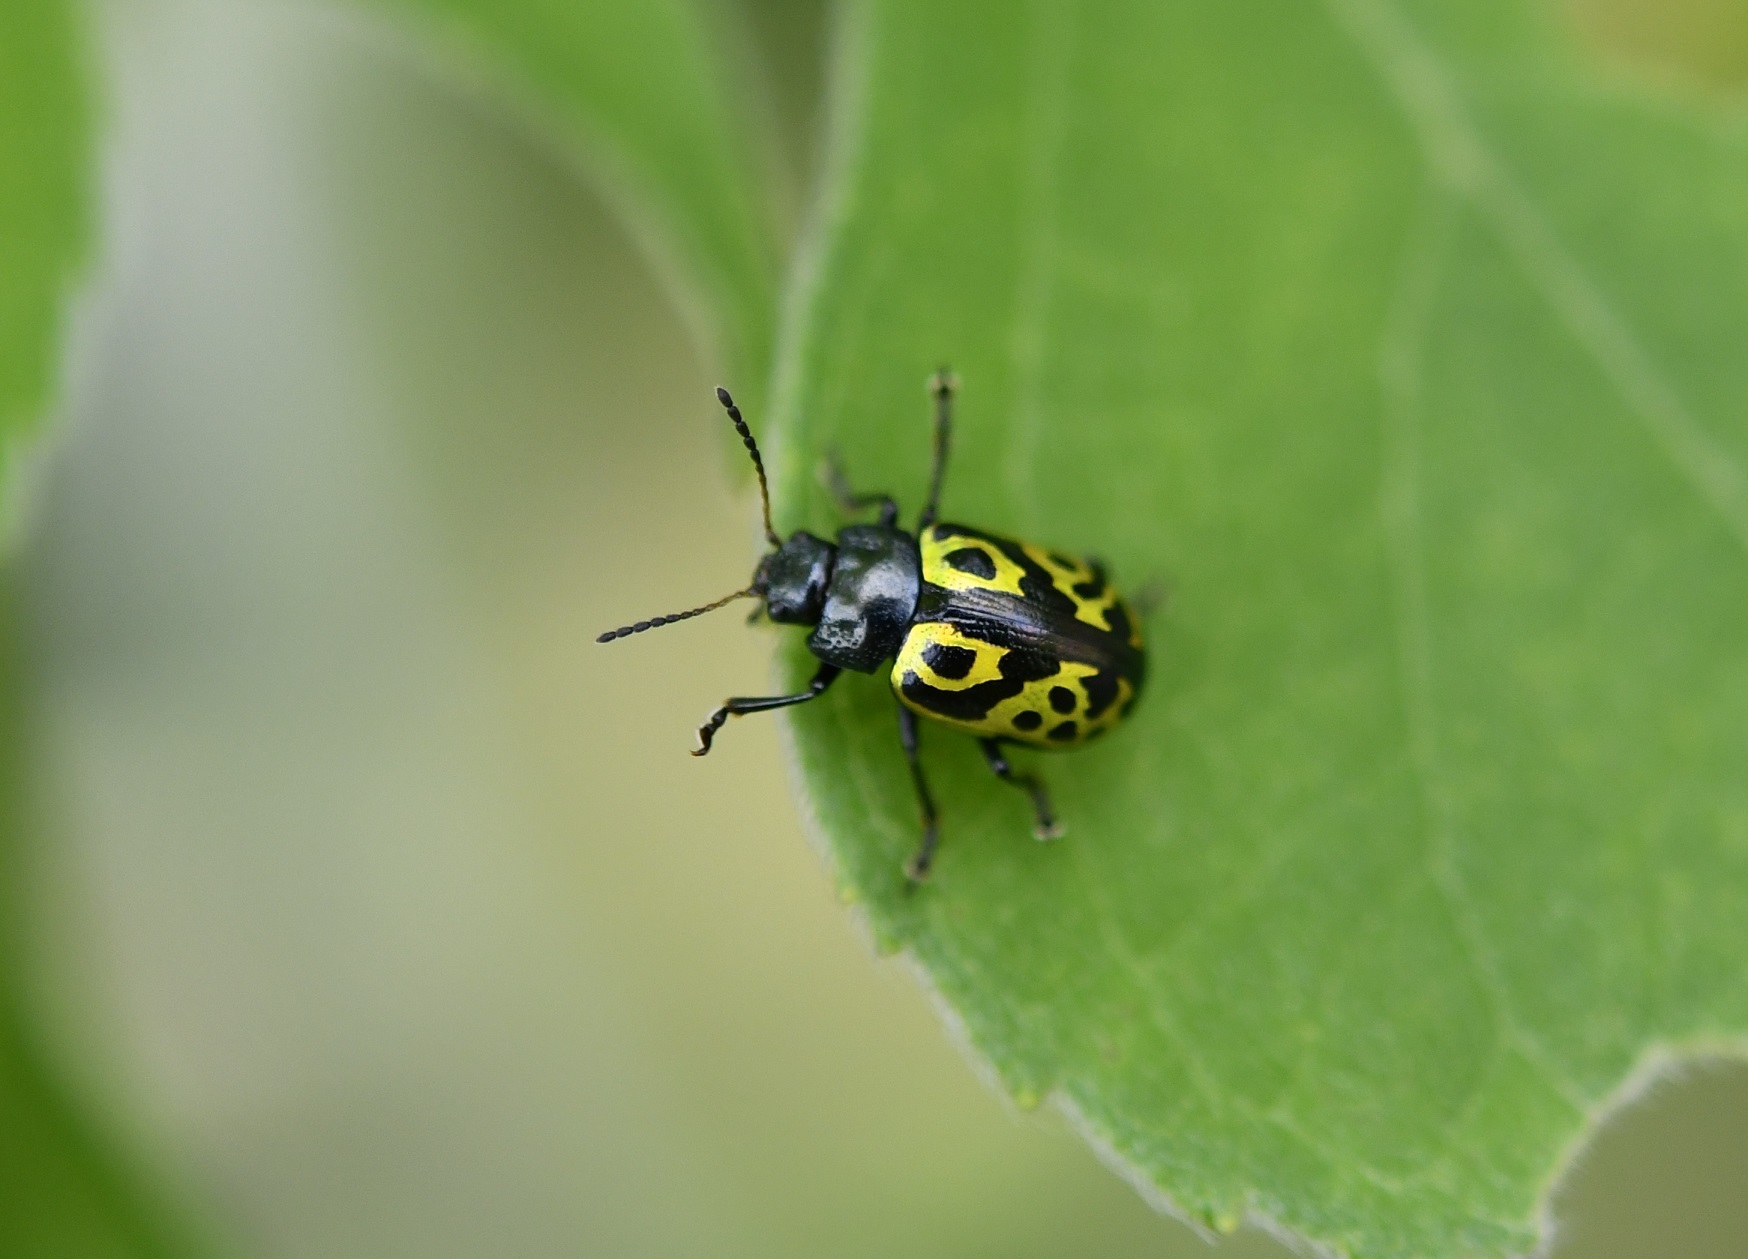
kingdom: Animalia
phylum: Arthropoda
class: Insecta
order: Coleoptera
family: Chrysomelidae
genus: Calligrapha
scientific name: Calligrapha
